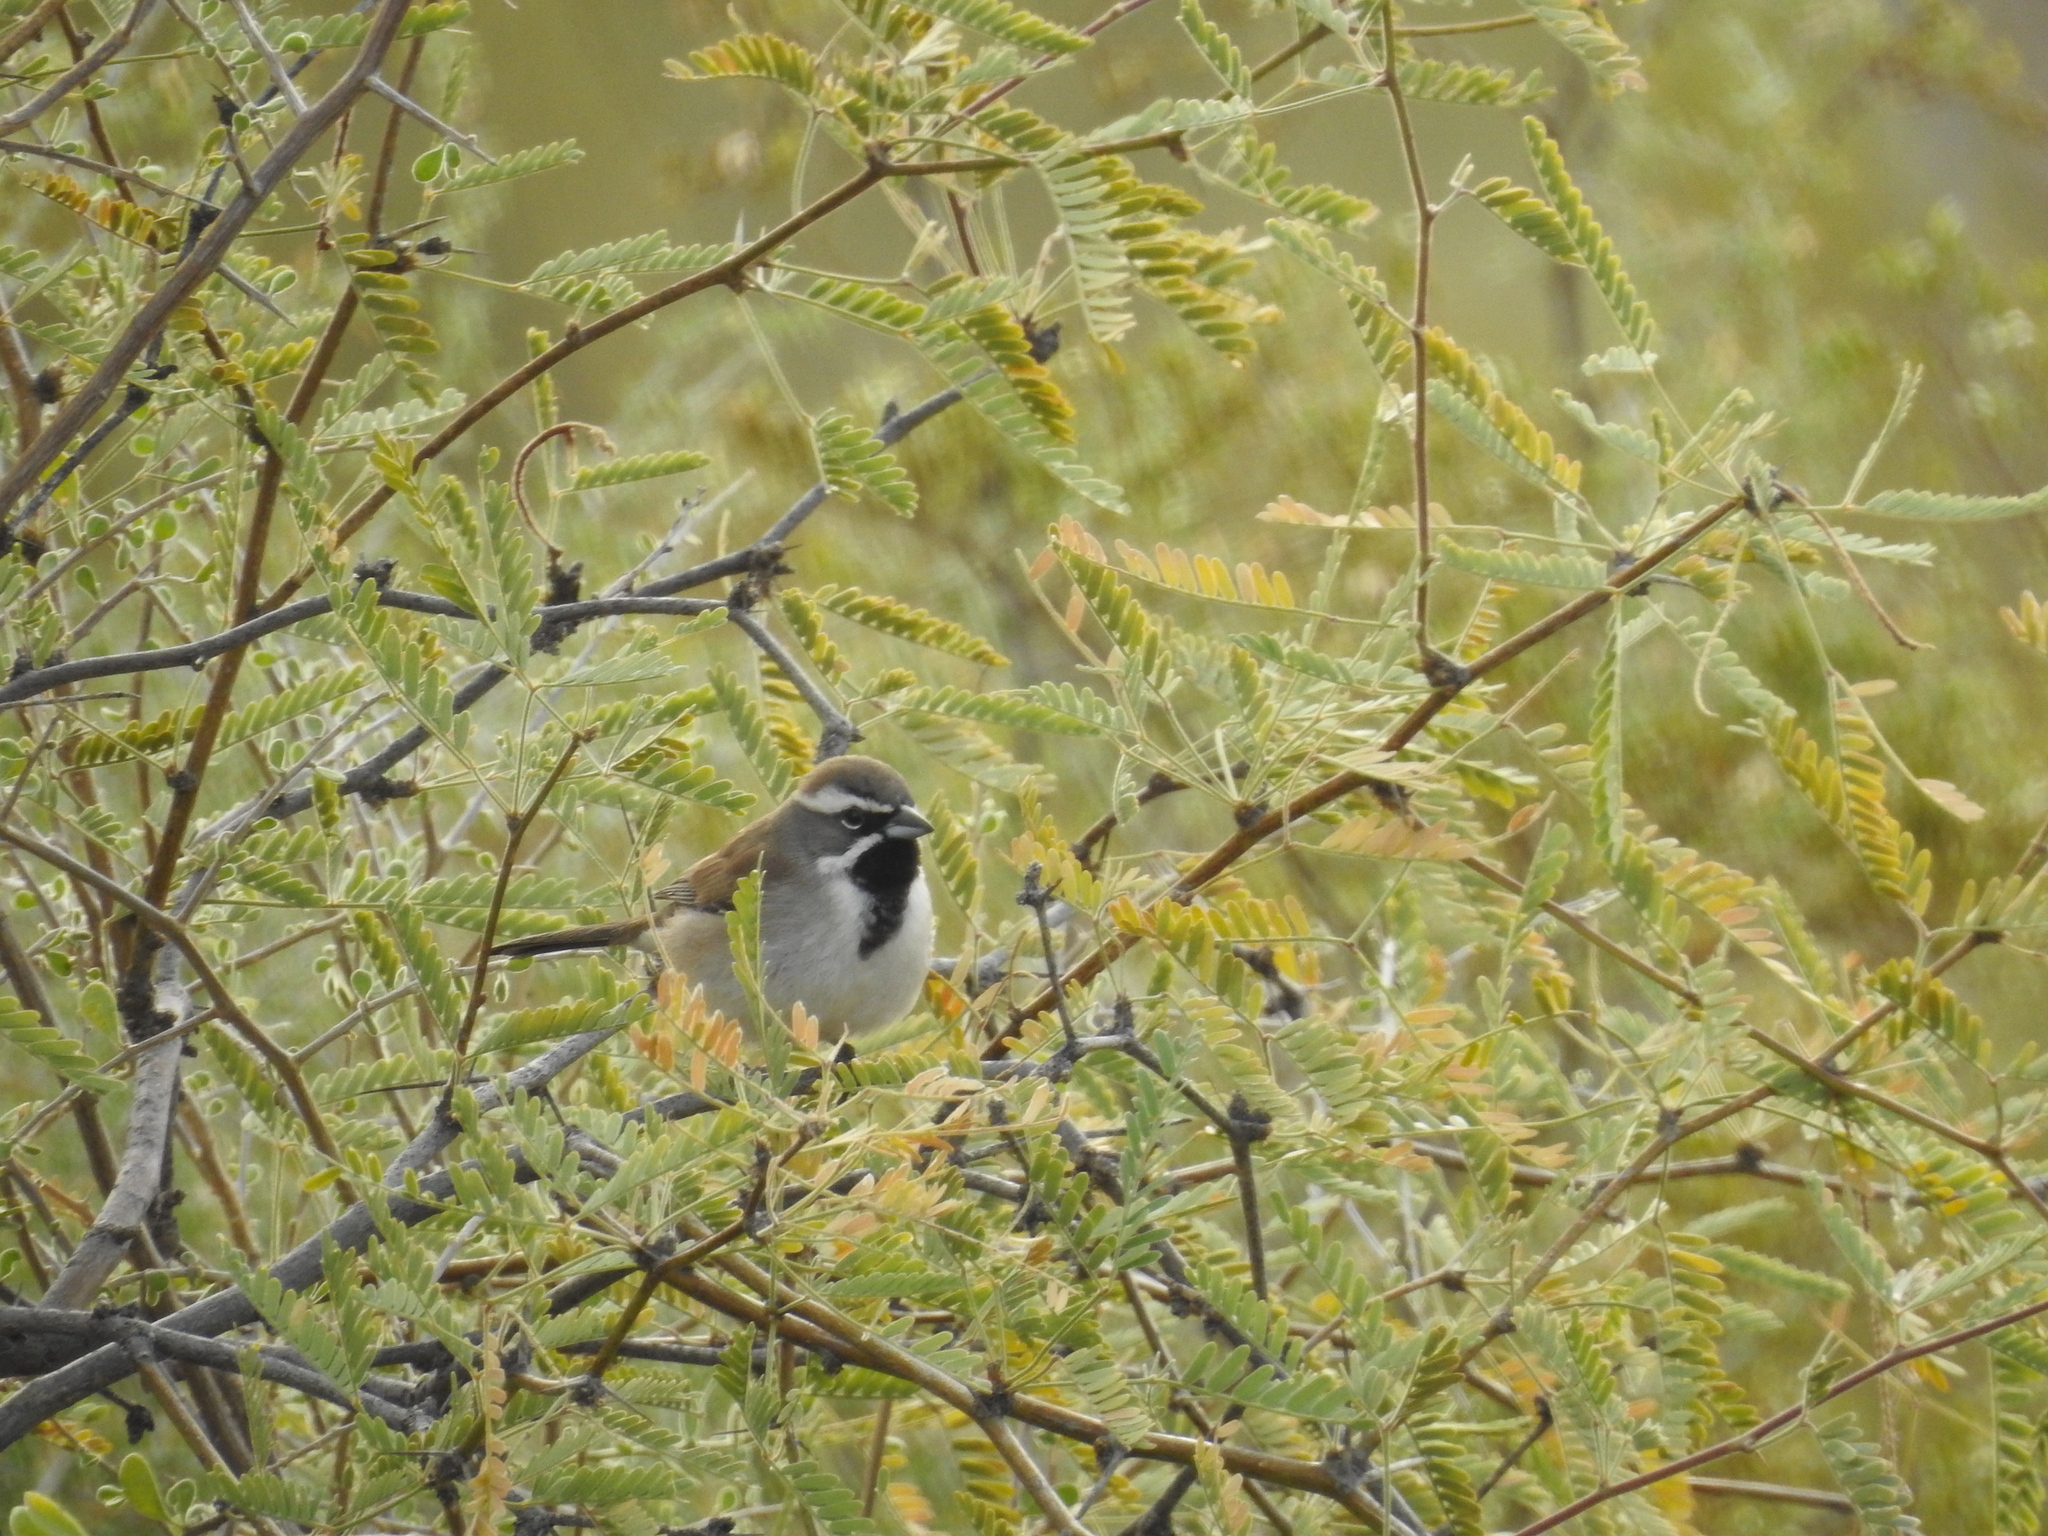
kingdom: Animalia
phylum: Chordata
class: Aves
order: Passeriformes
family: Passerellidae
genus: Amphispiza
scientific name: Amphispiza bilineata
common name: Black-throated sparrow
